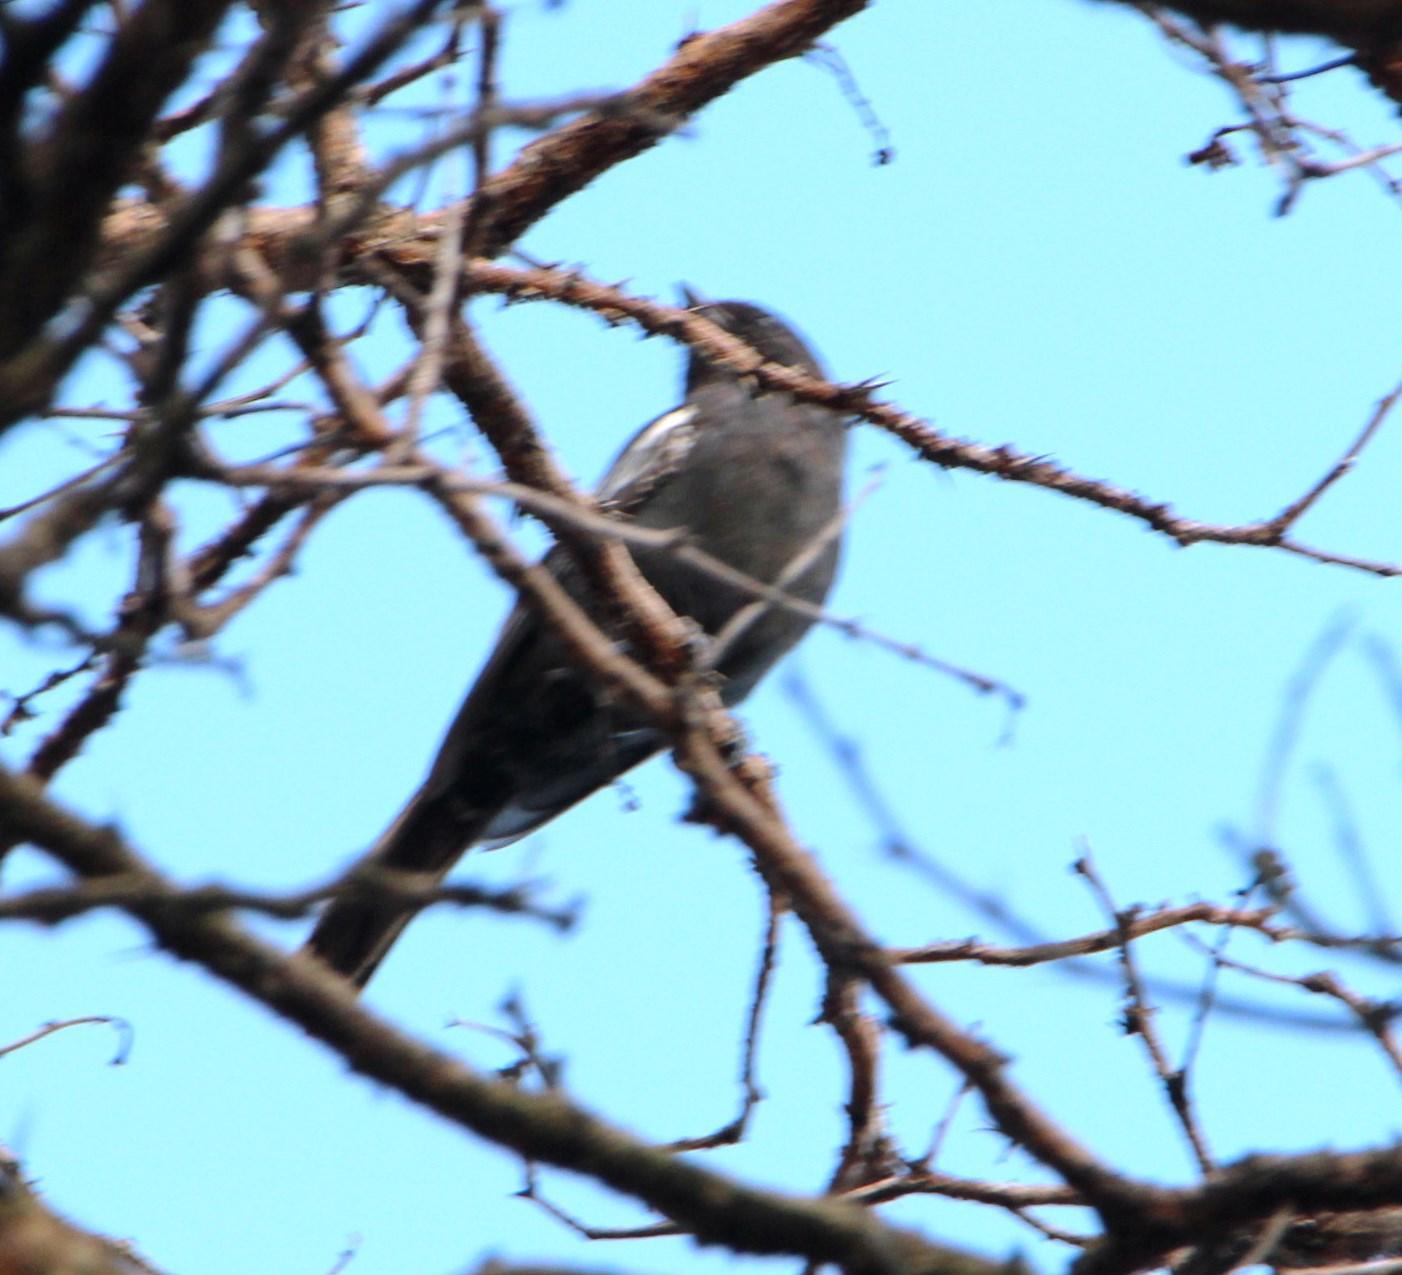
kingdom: Animalia
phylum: Chordata
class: Aves
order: Passeriformes
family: Paridae
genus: Parus
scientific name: Parus niger
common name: Southern black tit
